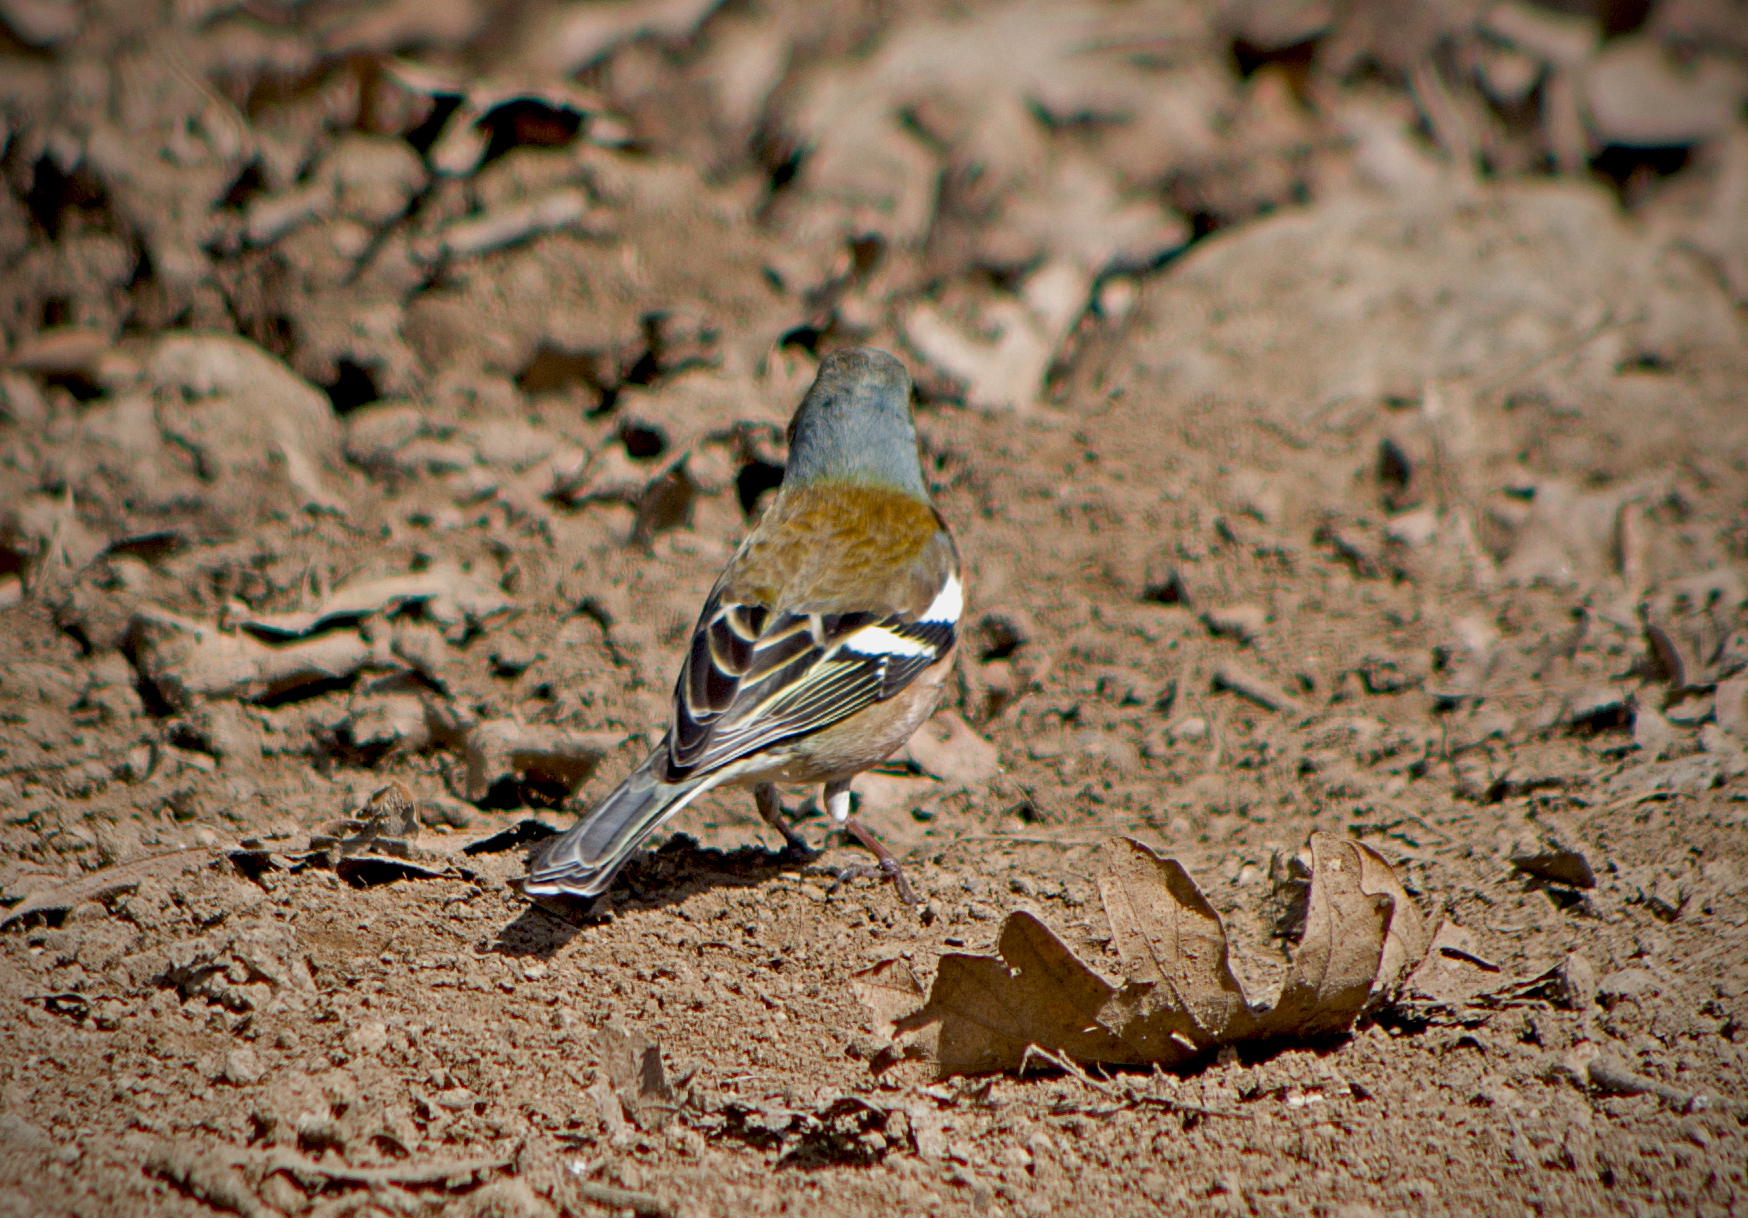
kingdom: Animalia
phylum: Chordata
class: Aves
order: Passeriformes
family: Fringillidae
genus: Fringilla
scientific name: Fringilla coelebs
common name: Common chaffinch
